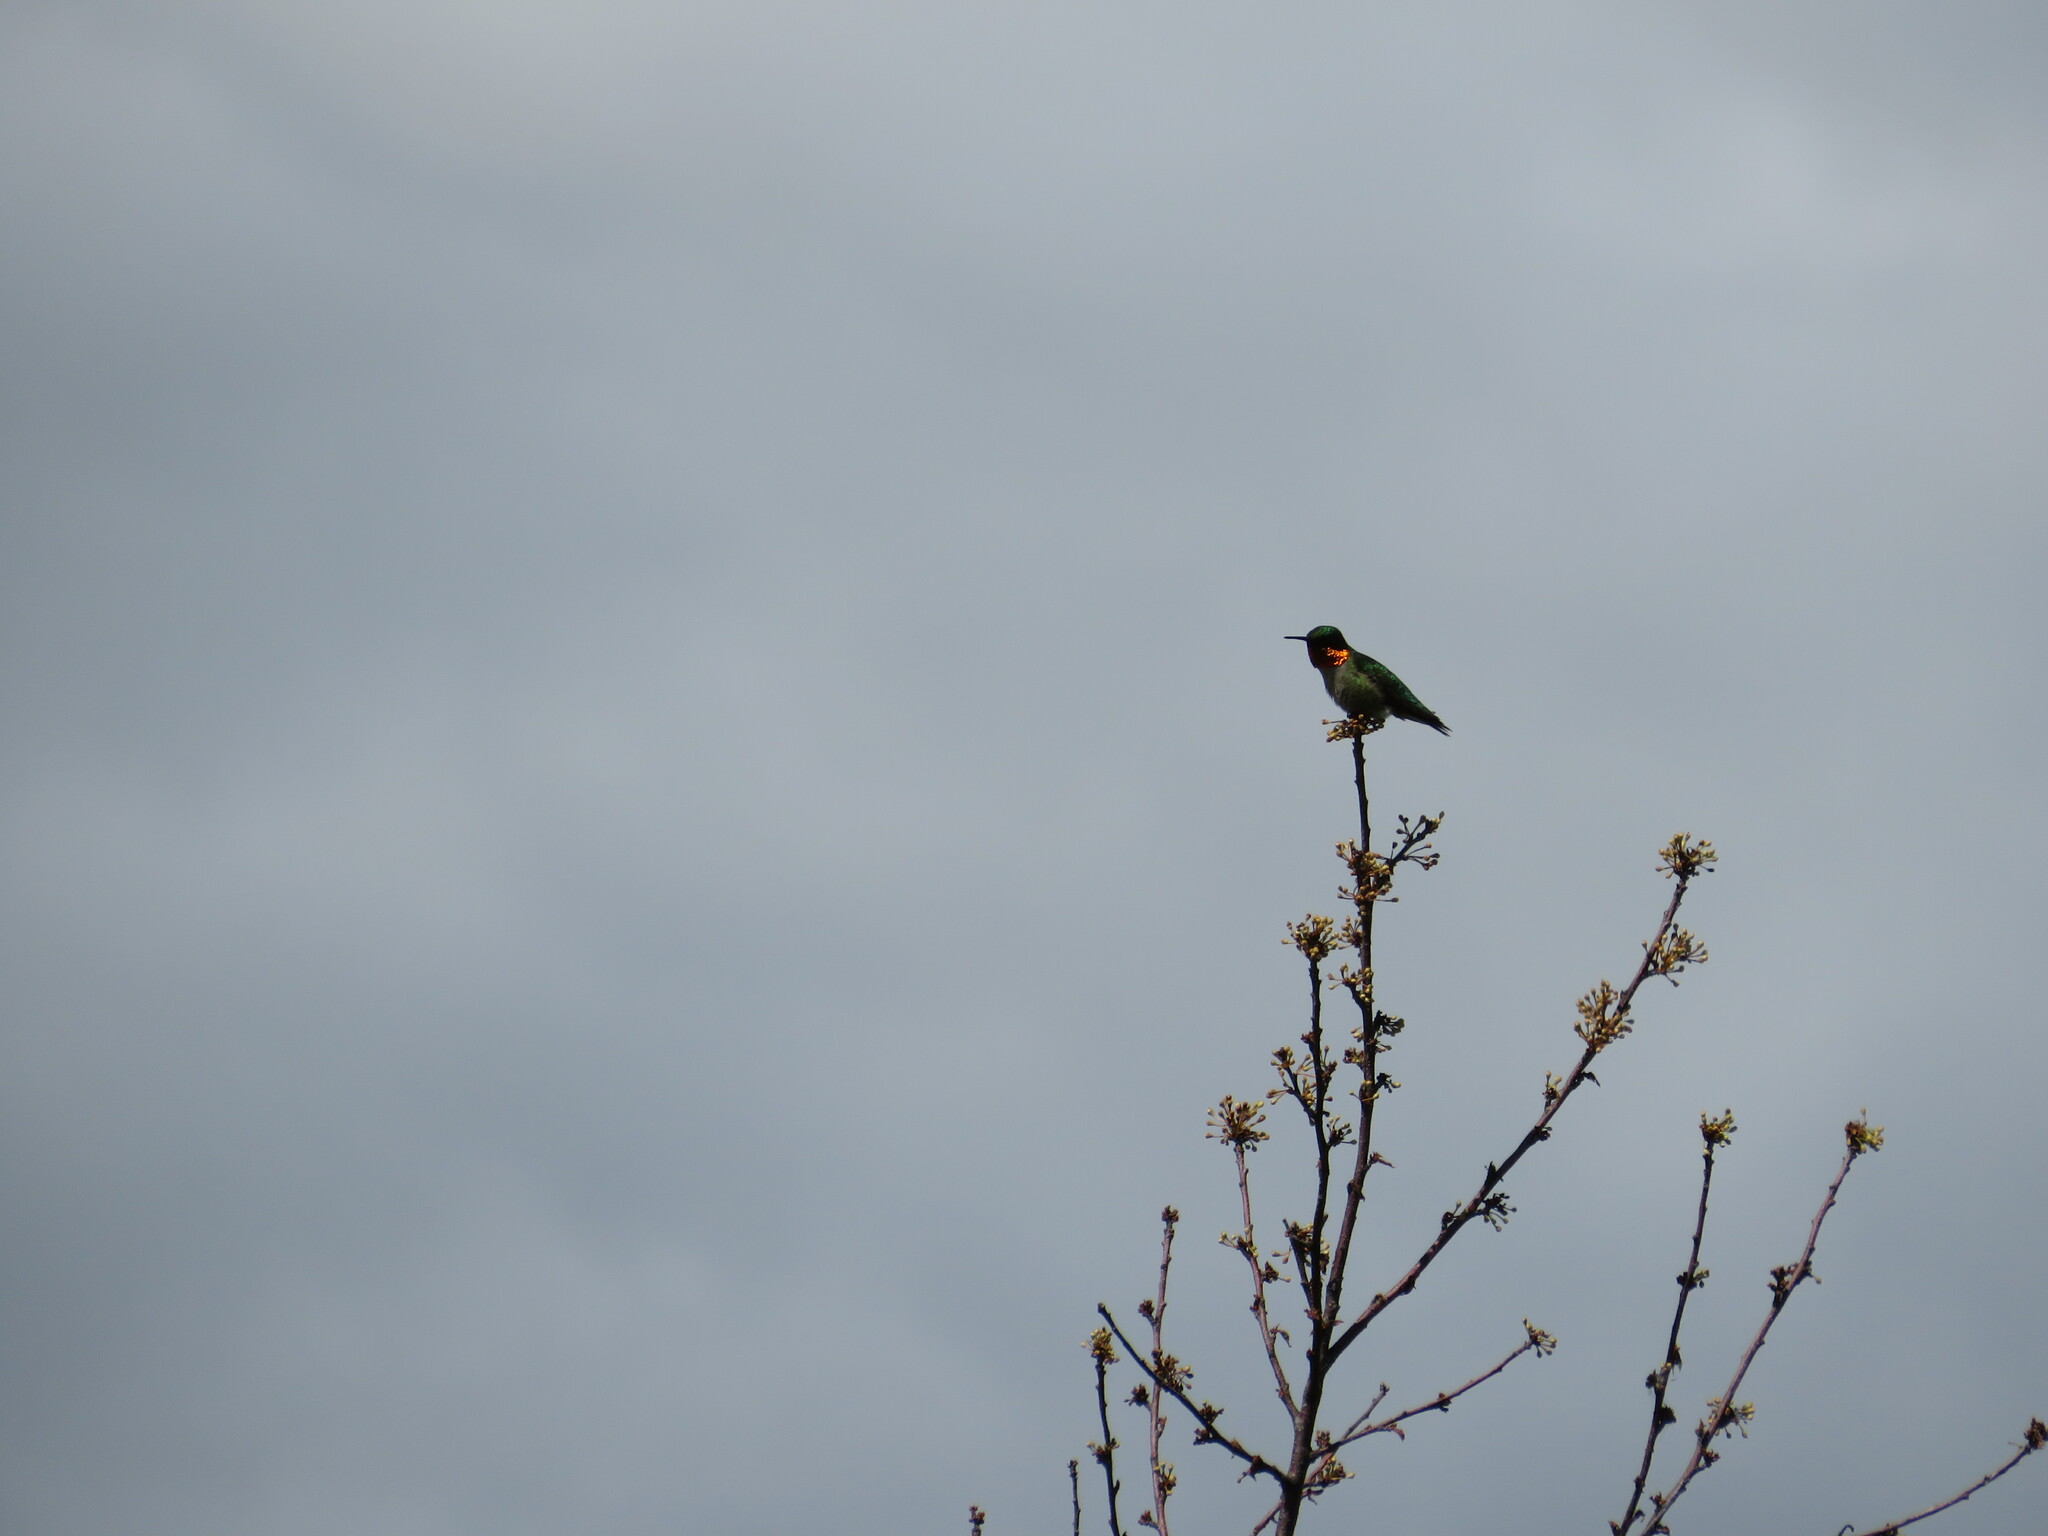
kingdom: Animalia
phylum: Chordata
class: Aves
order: Apodiformes
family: Trochilidae
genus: Archilochus
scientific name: Archilochus colubris
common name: Ruby-throated hummingbird
